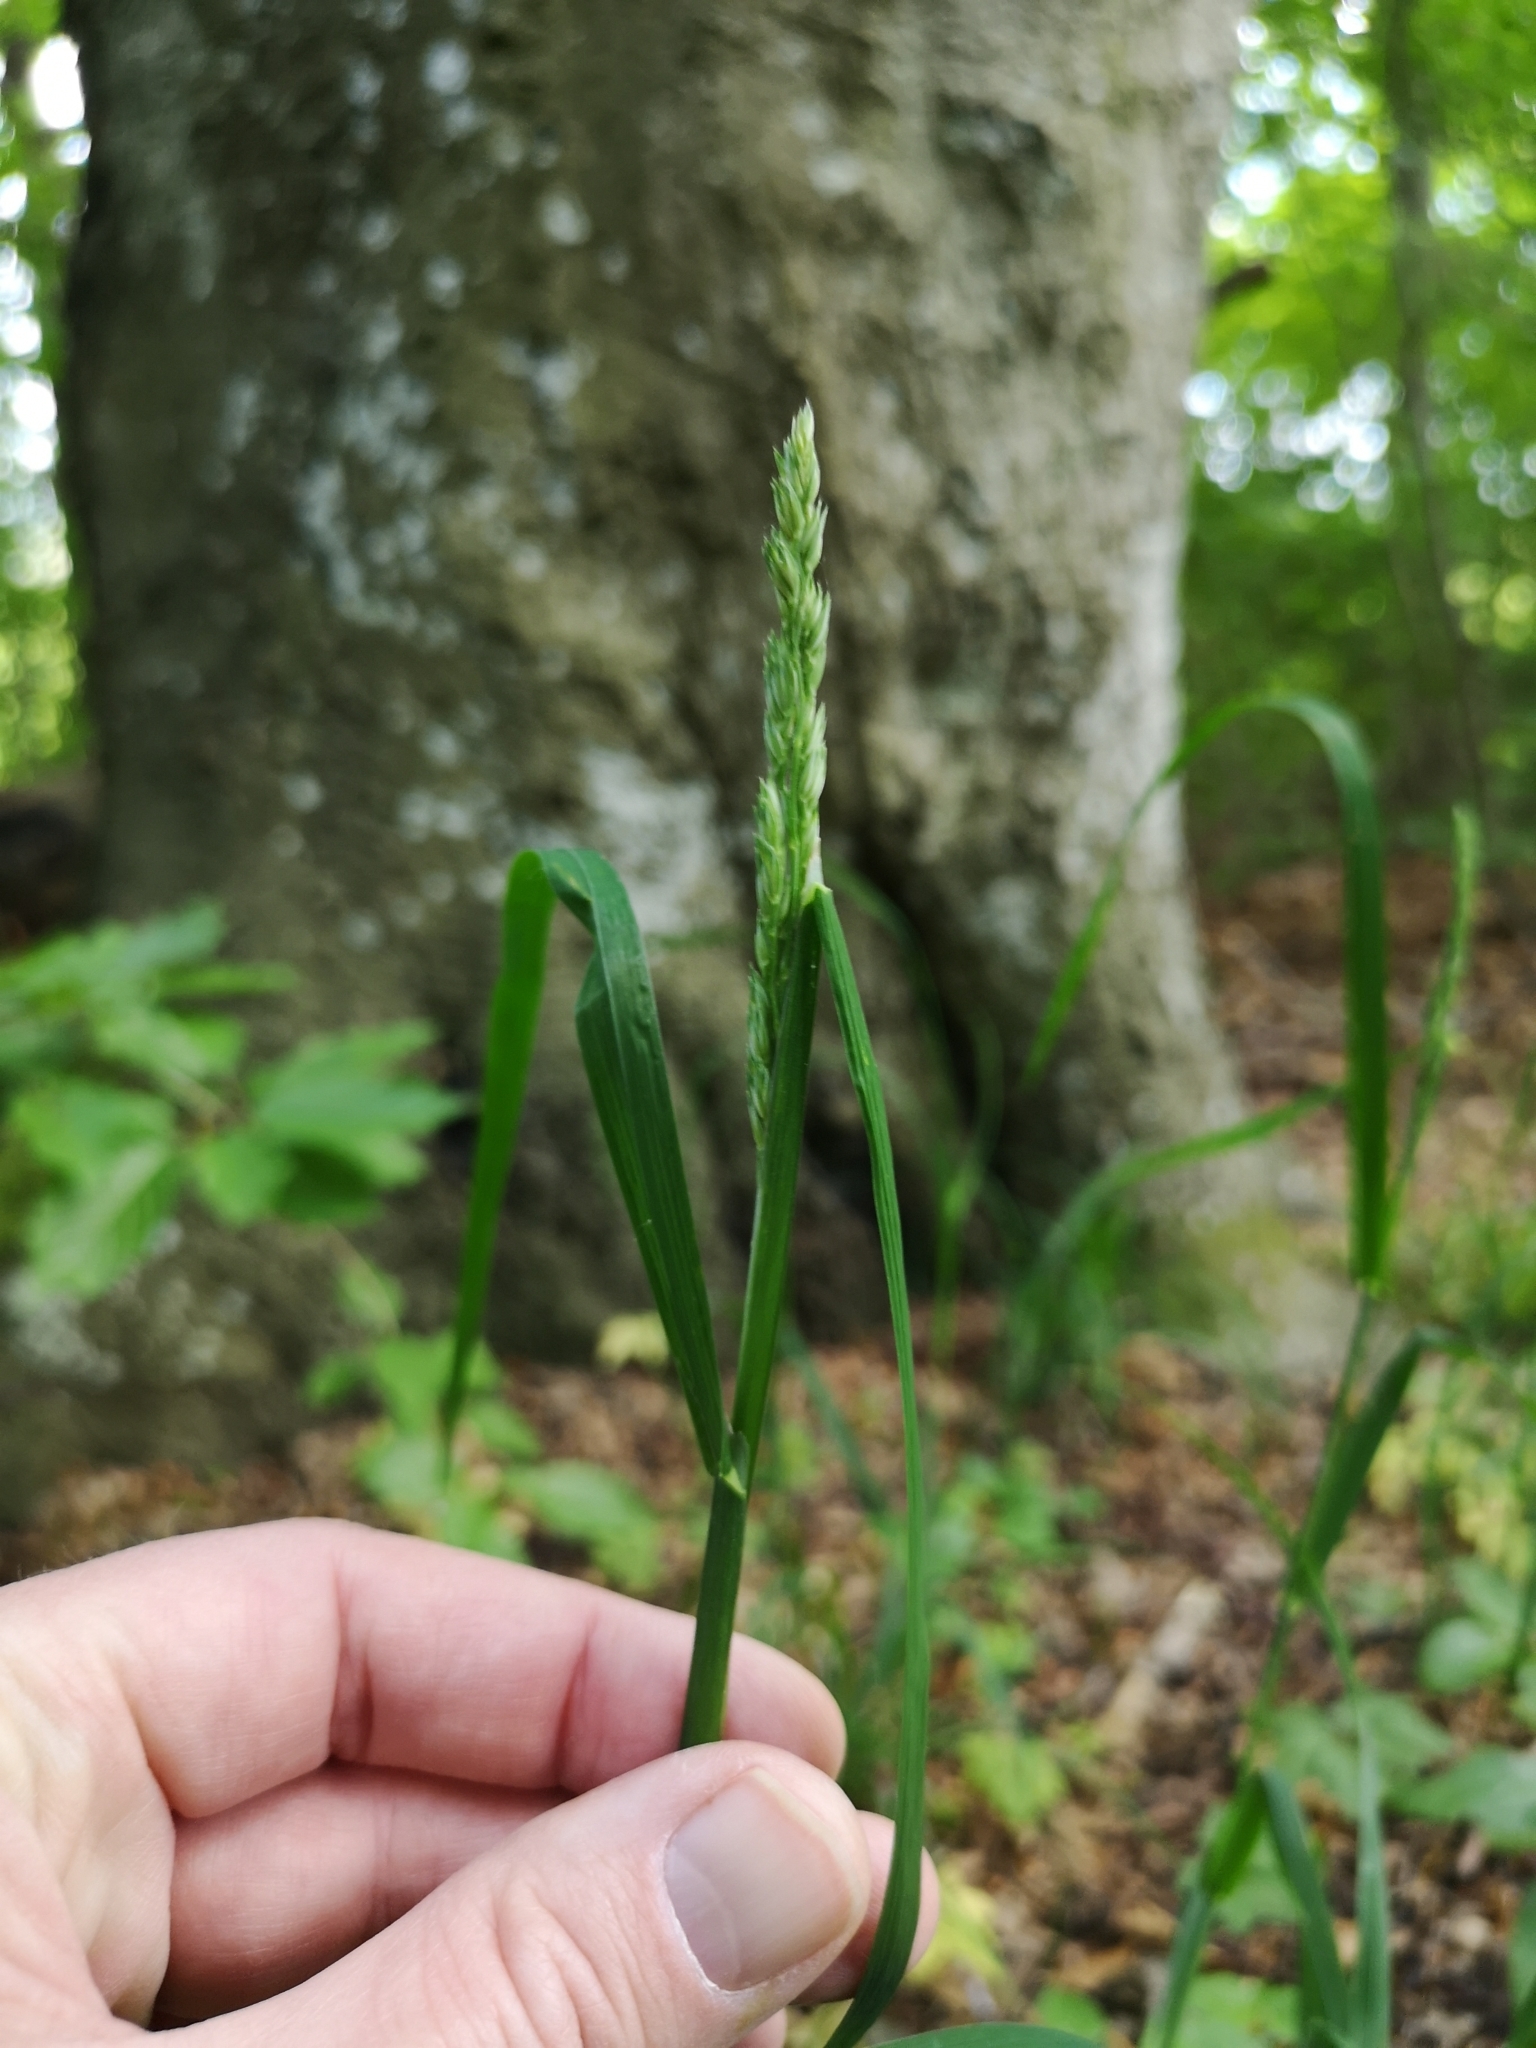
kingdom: Plantae
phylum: Tracheophyta
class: Liliopsida
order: Poales
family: Poaceae
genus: Dactylis
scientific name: Dactylis glomerata
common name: Orchardgrass
